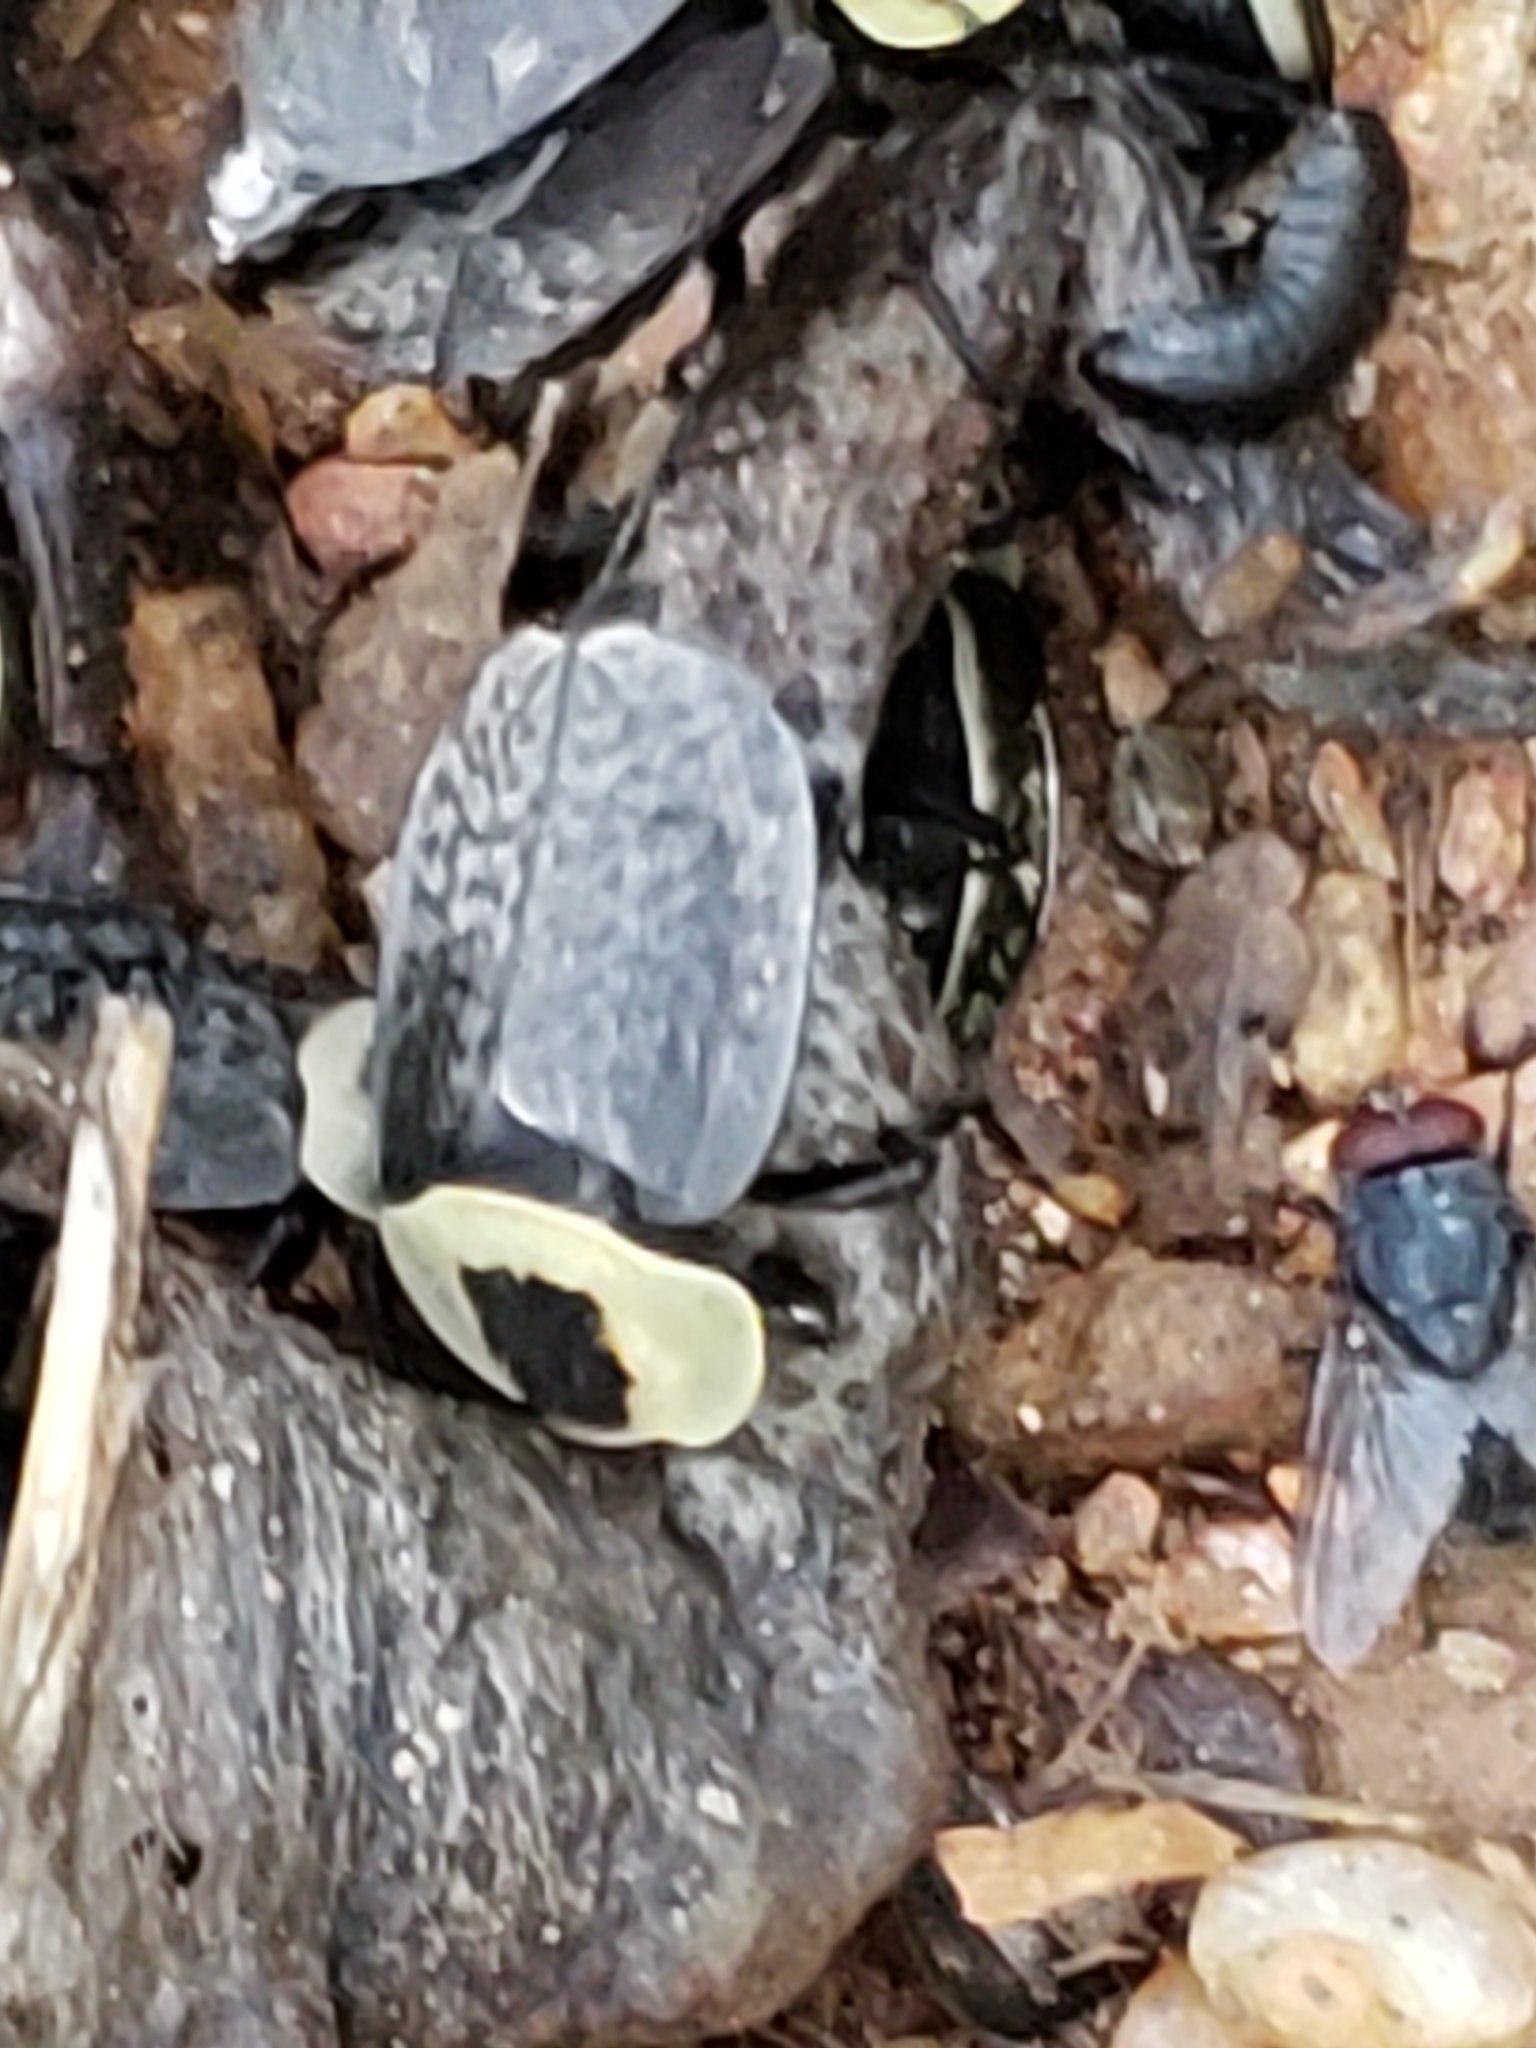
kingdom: Animalia
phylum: Arthropoda
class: Insecta
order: Coleoptera
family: Staphylinidae
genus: Necrophila
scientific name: Necrophila americana
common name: American carrion beetle
